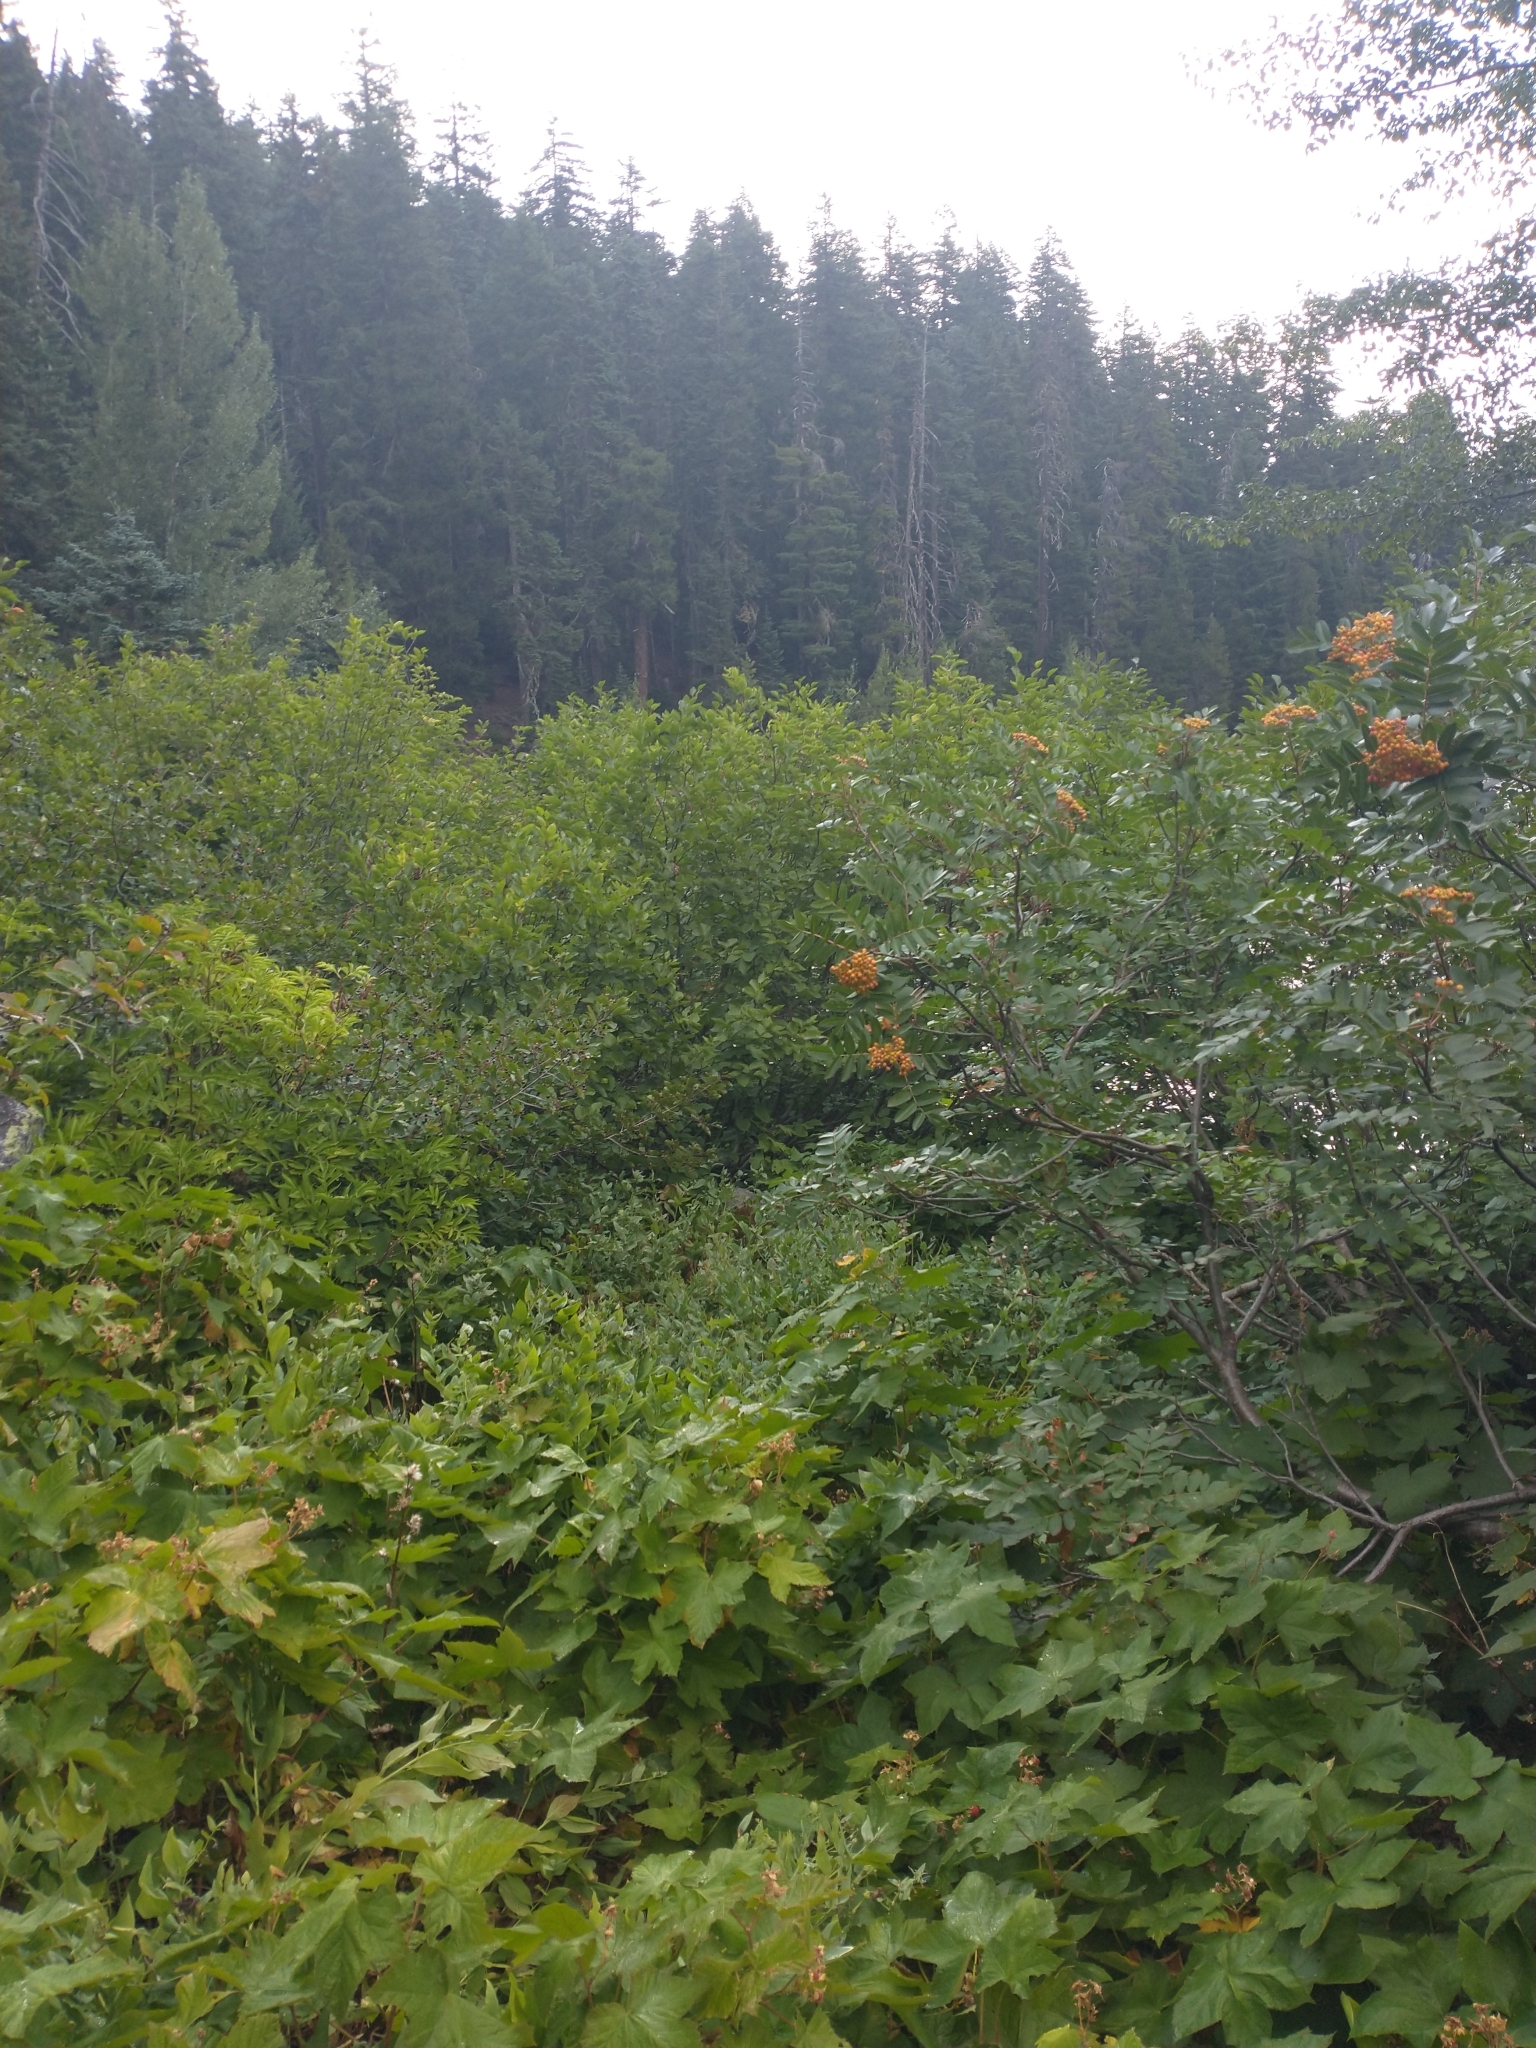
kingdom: Plantae
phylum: Tracheophyta
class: Magnoliopsida
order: Rosales
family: Rosaceae
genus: Sorbus
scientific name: Sorbus sitchensis
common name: Sitka mountain-ash
